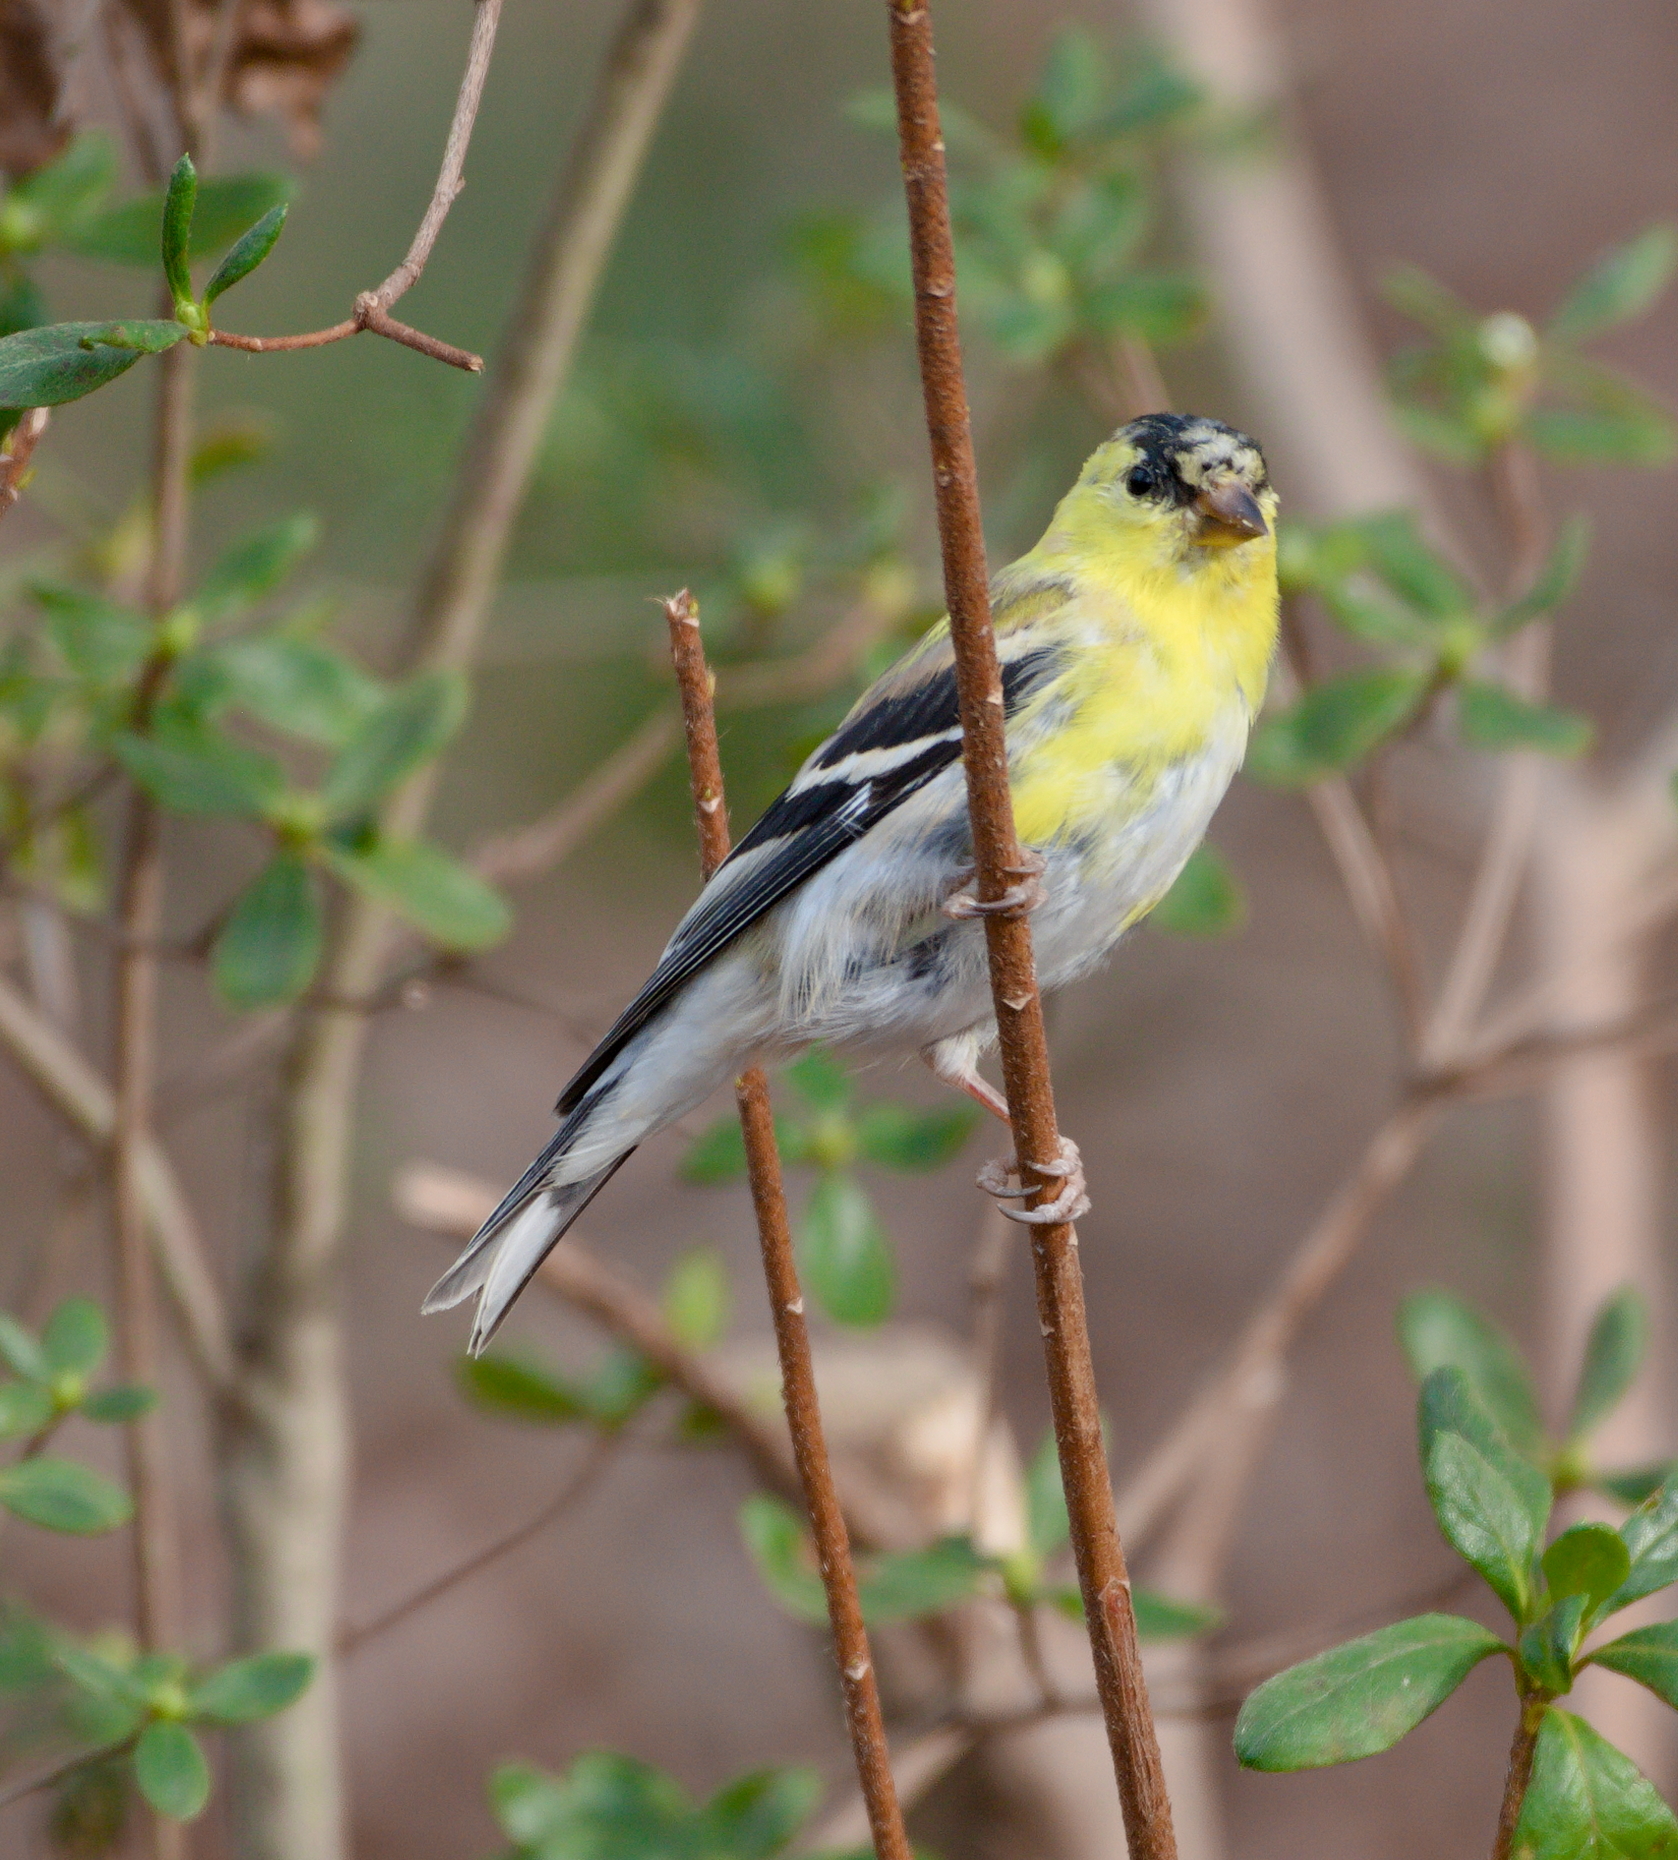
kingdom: Animalia
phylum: Chordata
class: Aves
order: Passeriformes
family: Fringillidae
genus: Spinus
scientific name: Spinus tristis
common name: American goldfinch
